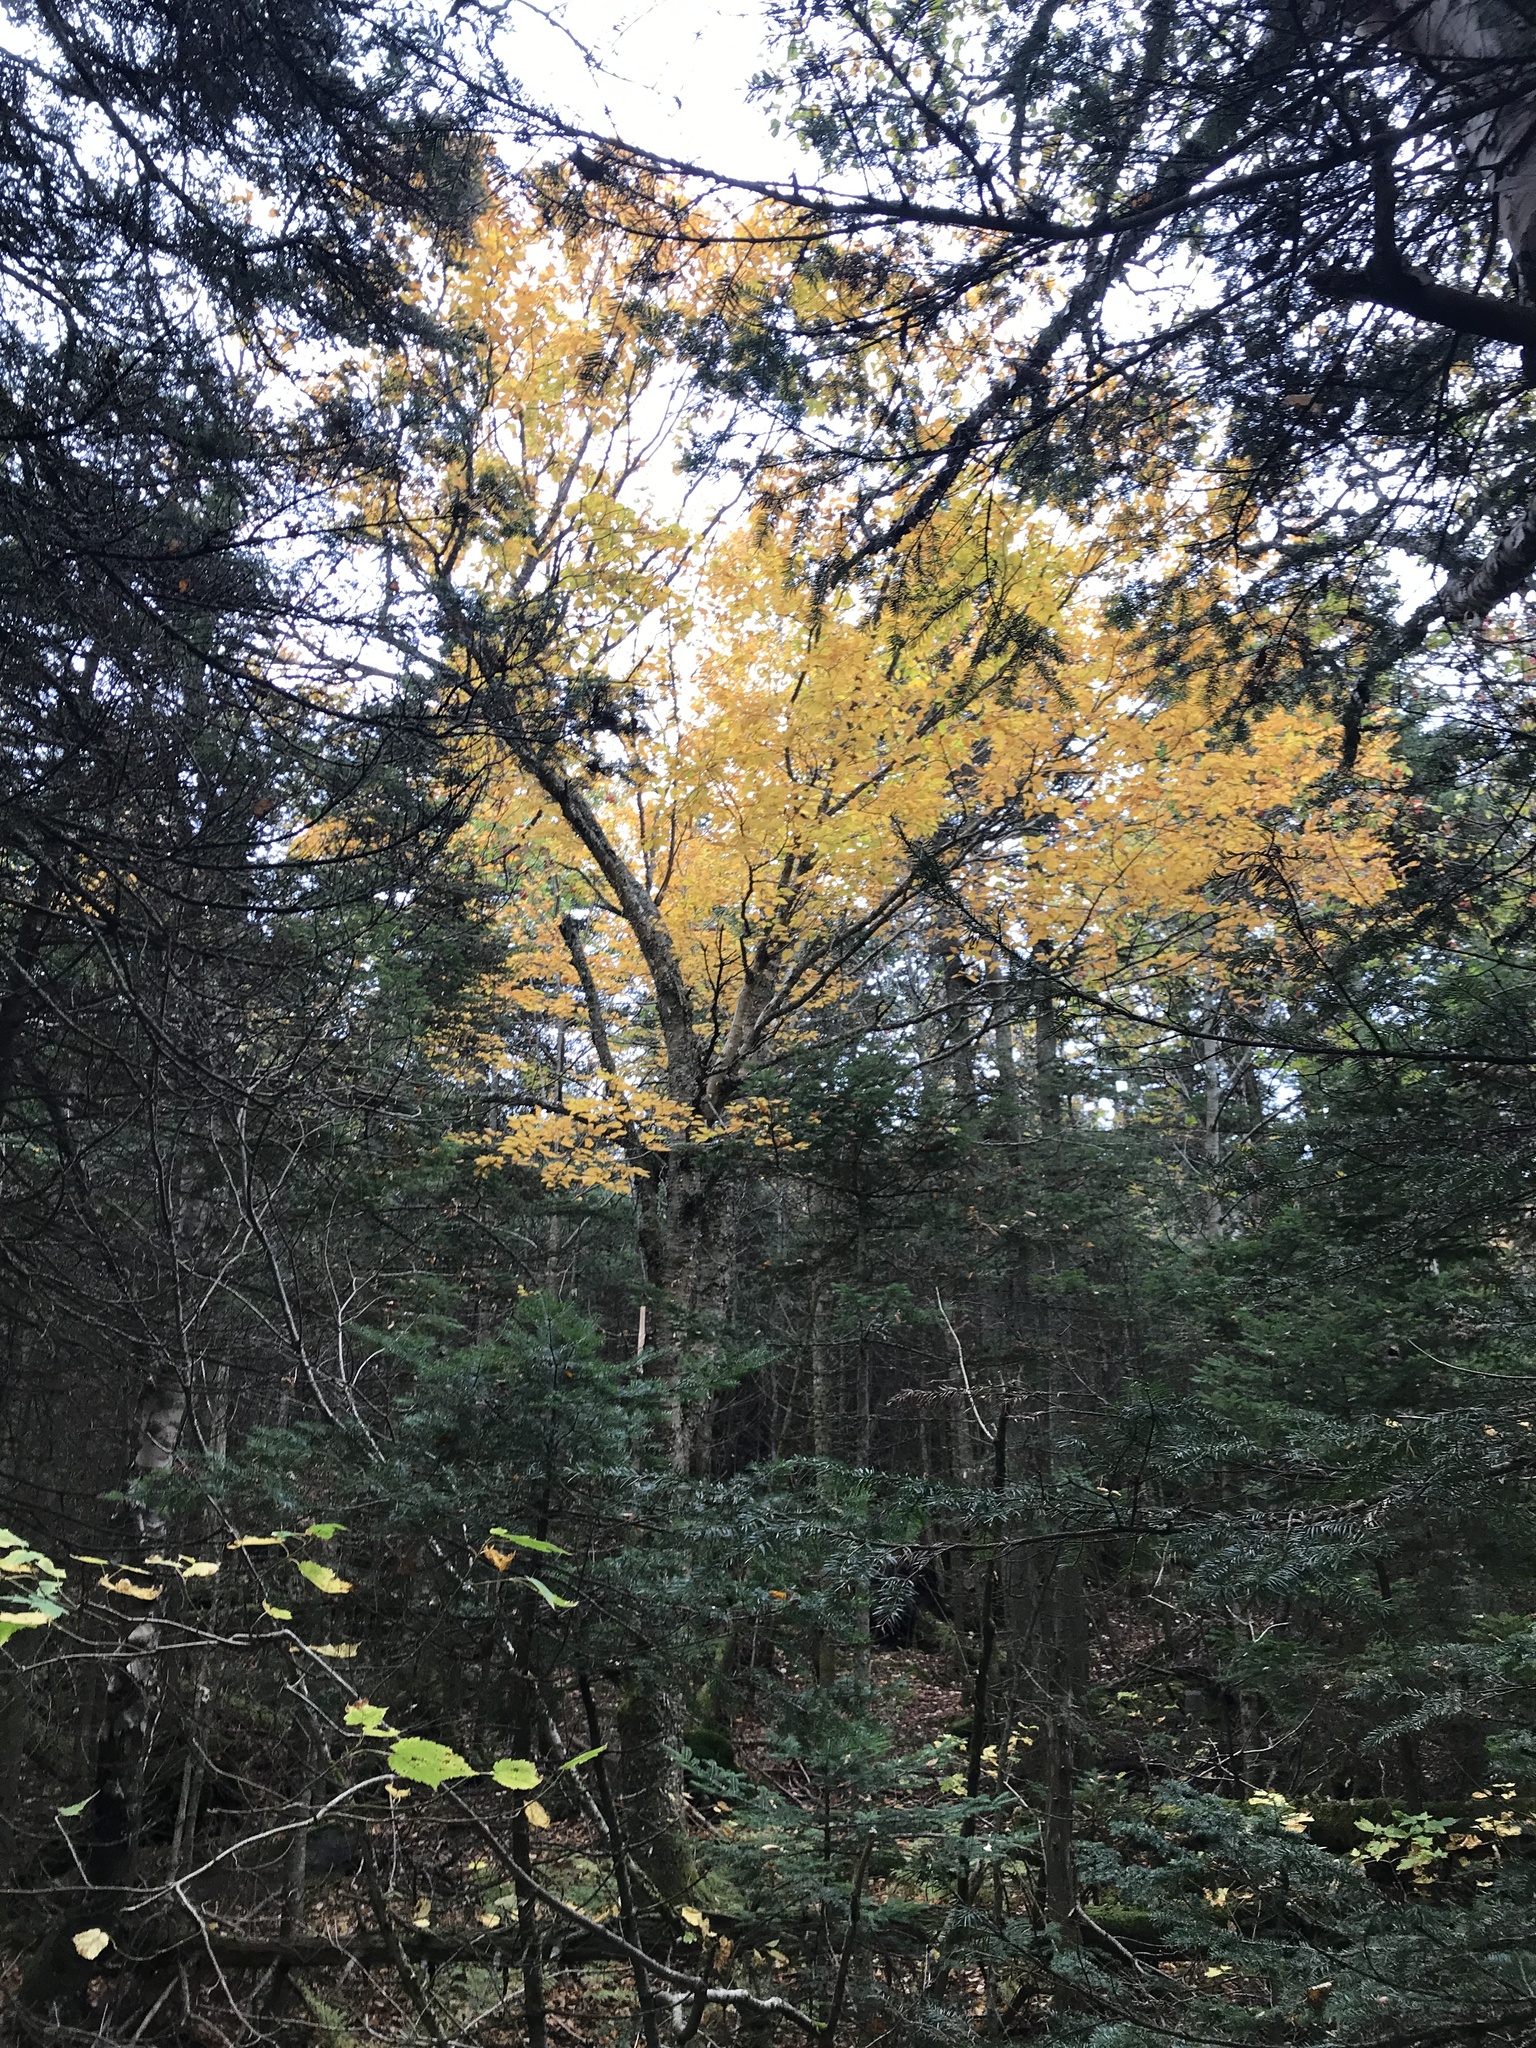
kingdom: Plantae
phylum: Tracheophyta
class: Magnoliopsida
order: Fagales
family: Betulaceae
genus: Betula
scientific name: Betula alleghaniensis
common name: Yellow birch
